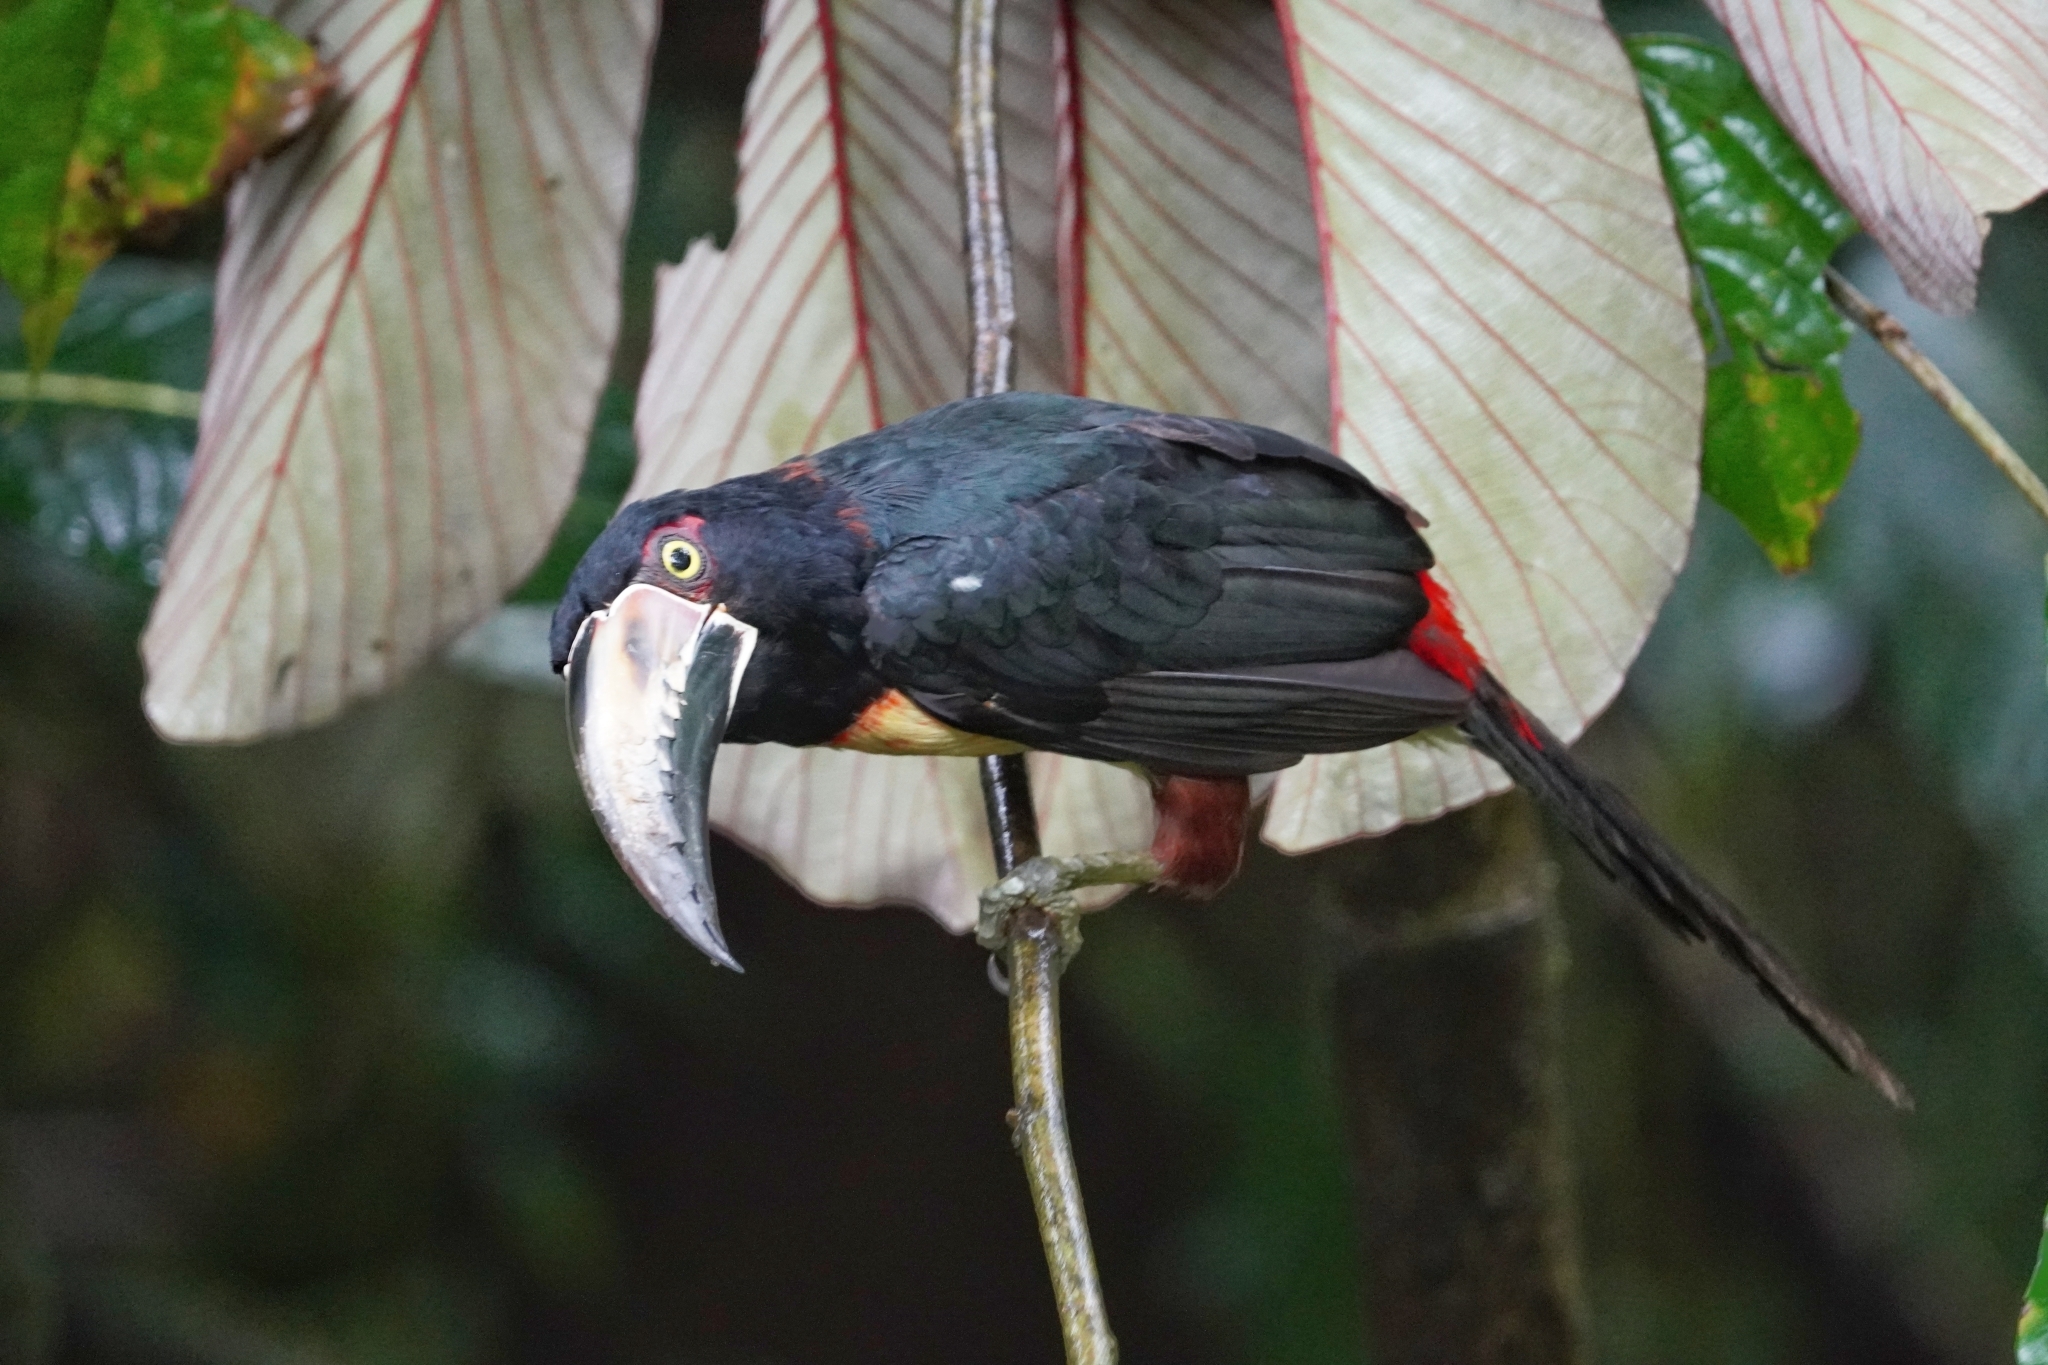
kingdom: Animalia
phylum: Chordata
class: Aves
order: Piciformes
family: Ramphastidae
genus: Pteroglossus
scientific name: Pteroglossus torquatus
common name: Collared aracari
